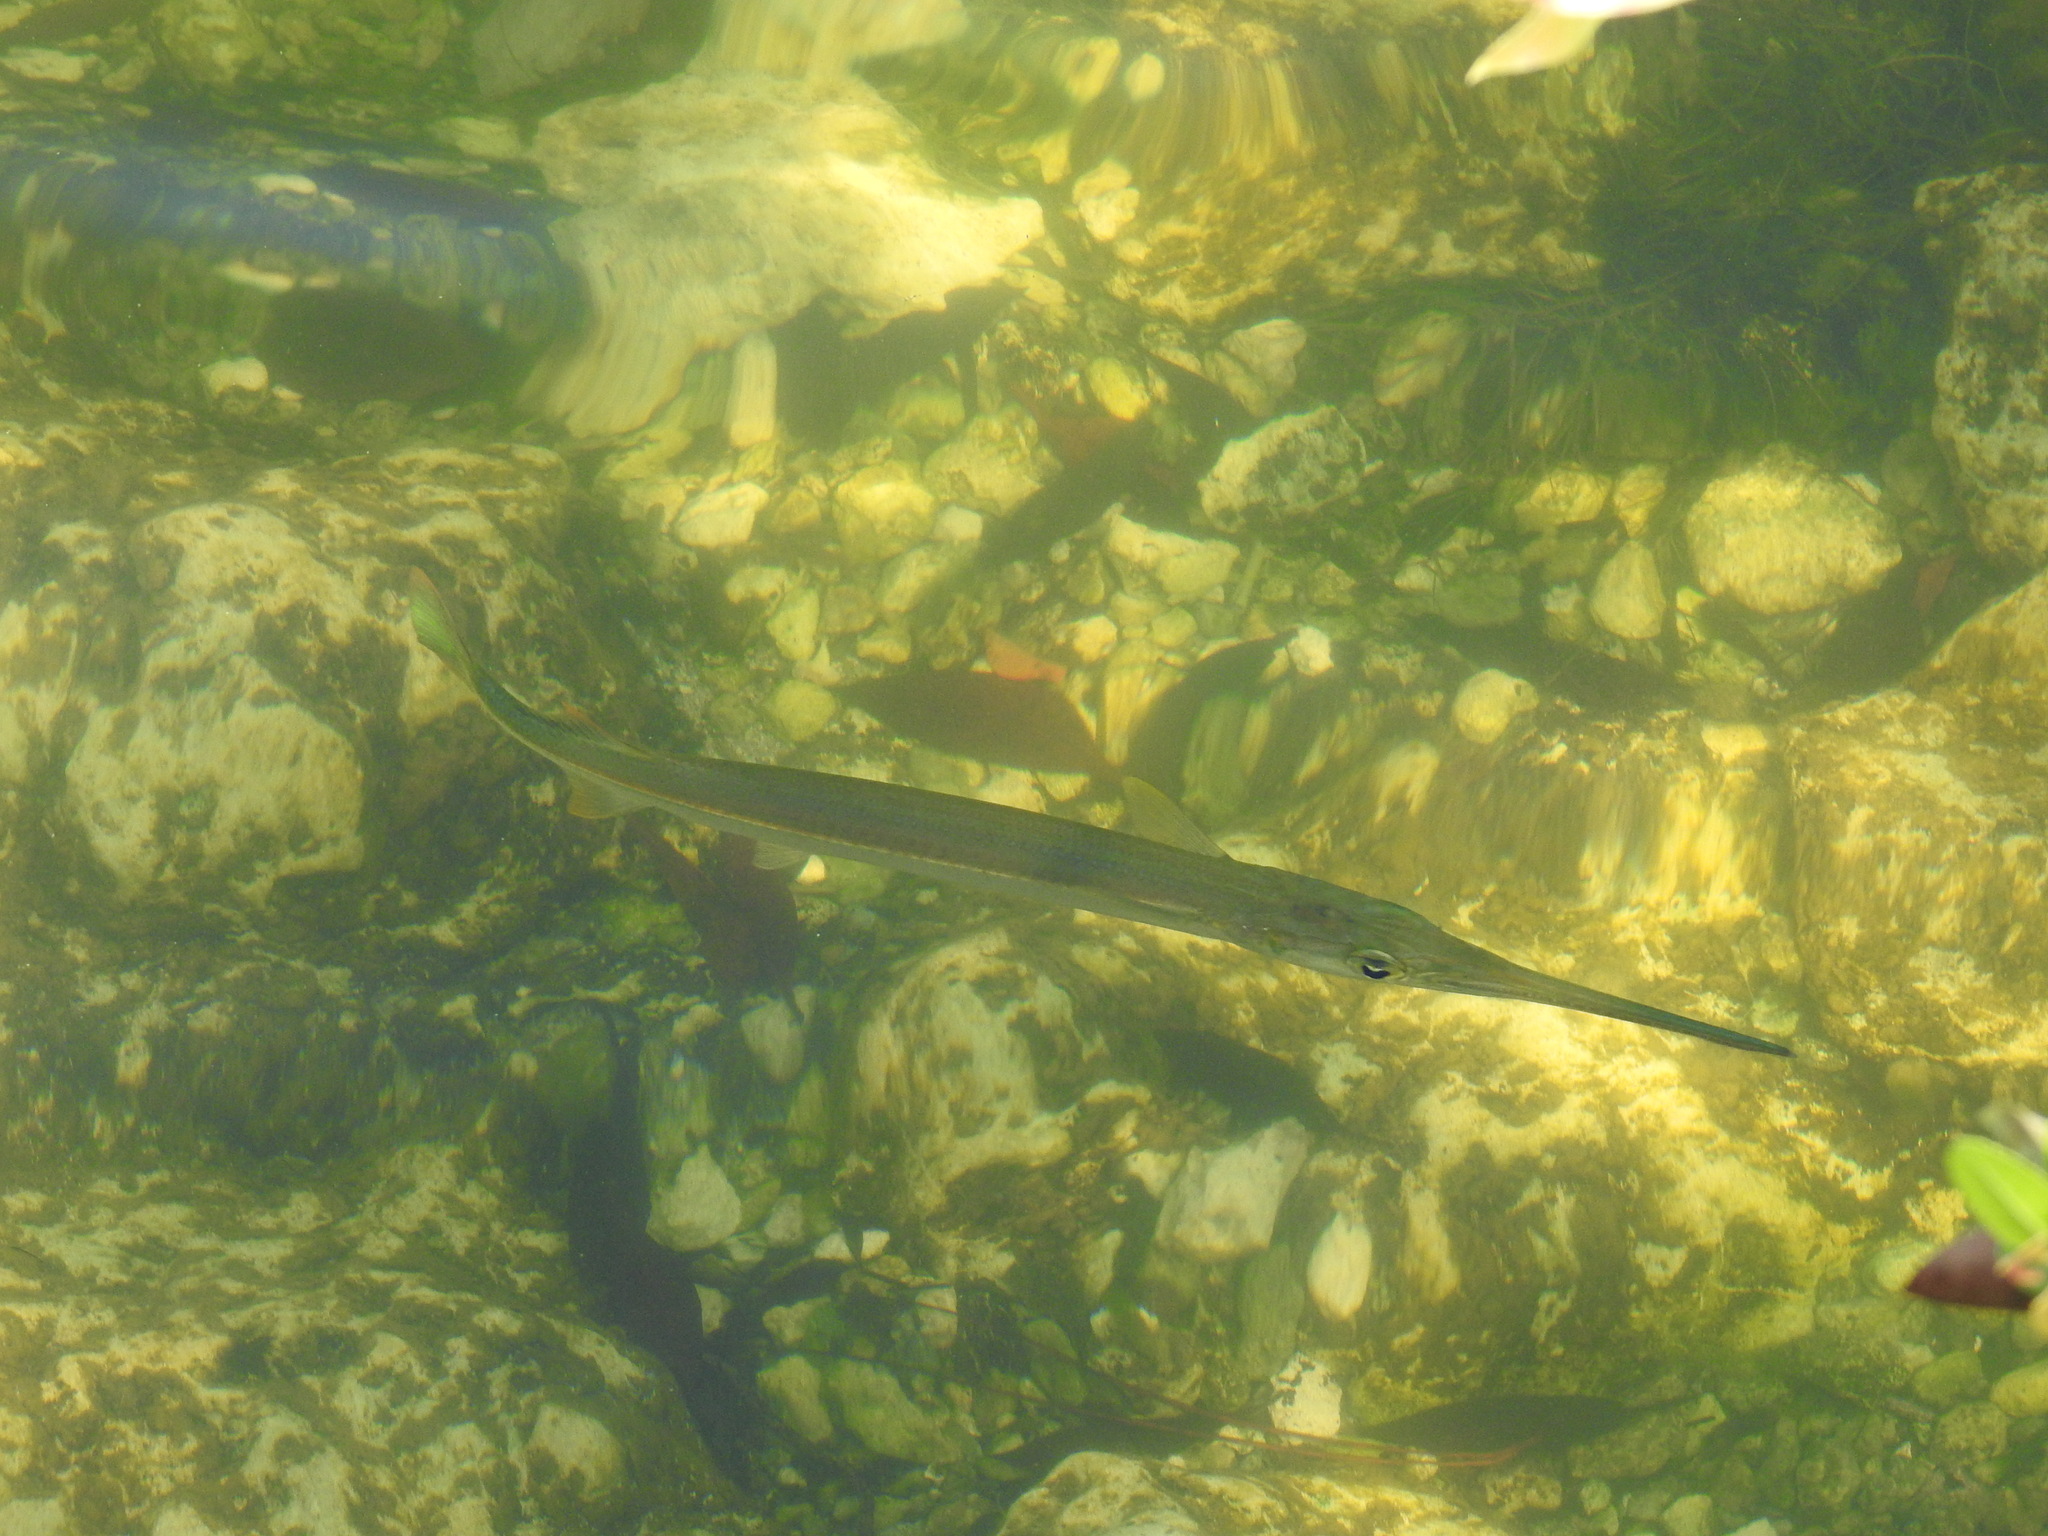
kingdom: Animalia
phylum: Chordata
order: Beloniformes
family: Belonidae
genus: Strongylura
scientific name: Strongylura notata
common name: Redfin needlefish
